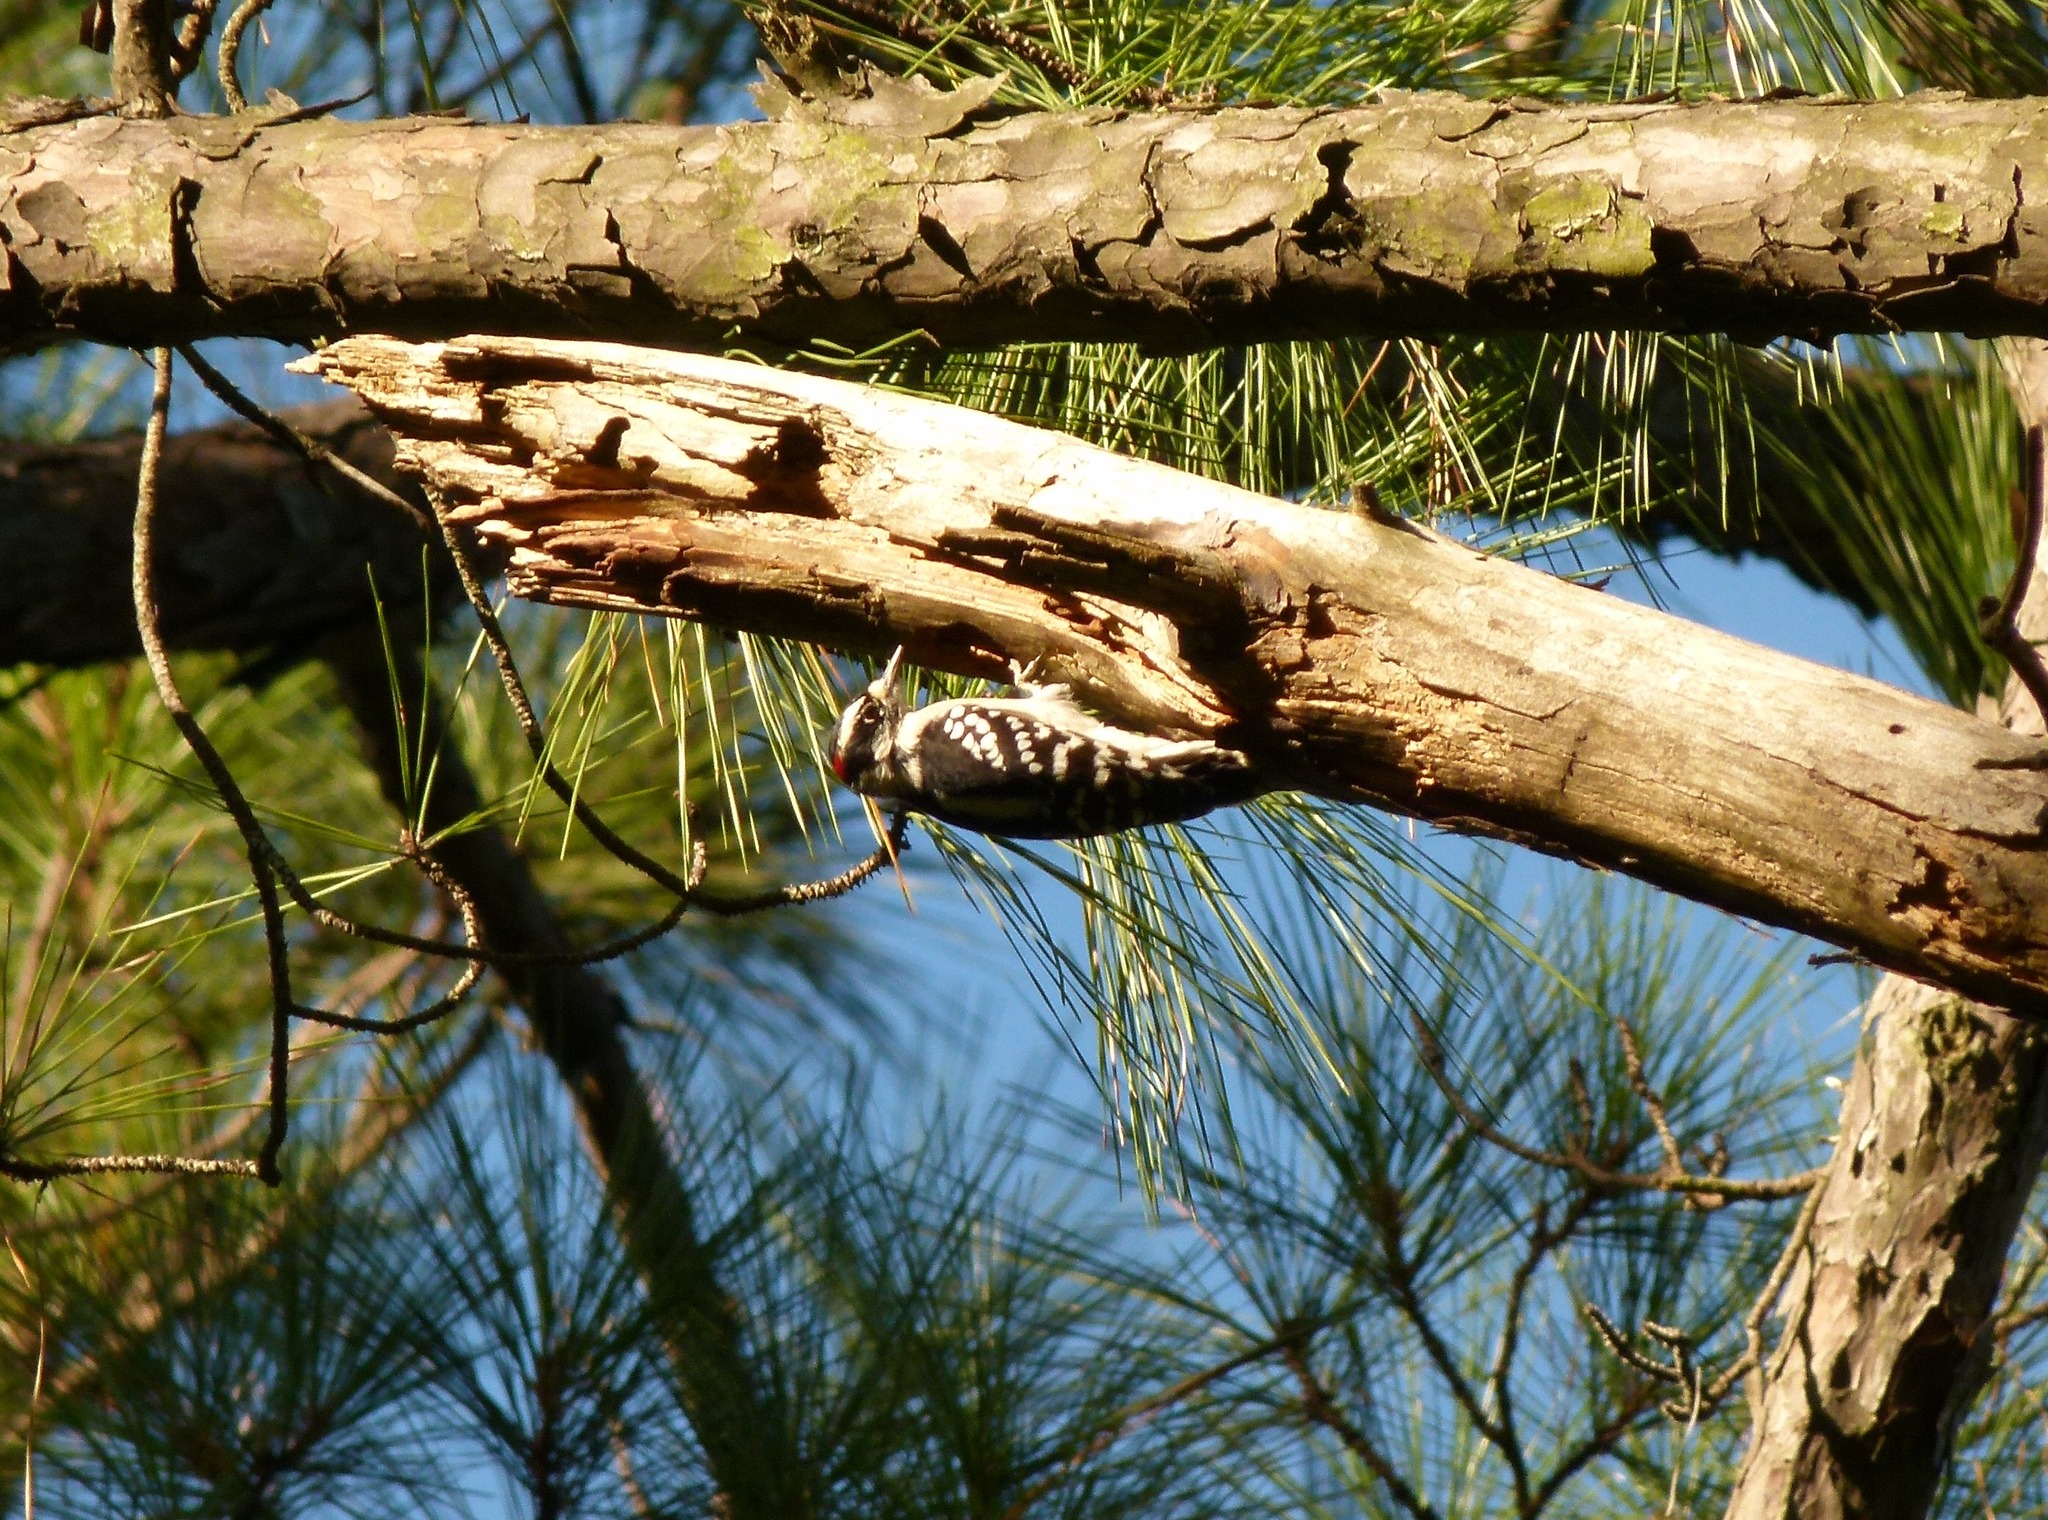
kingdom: Animalia
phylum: Chordata
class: Aves
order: Piciformes
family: Picidae
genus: Dryobates
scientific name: Dryobates pubescens
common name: Downy woodpecker
